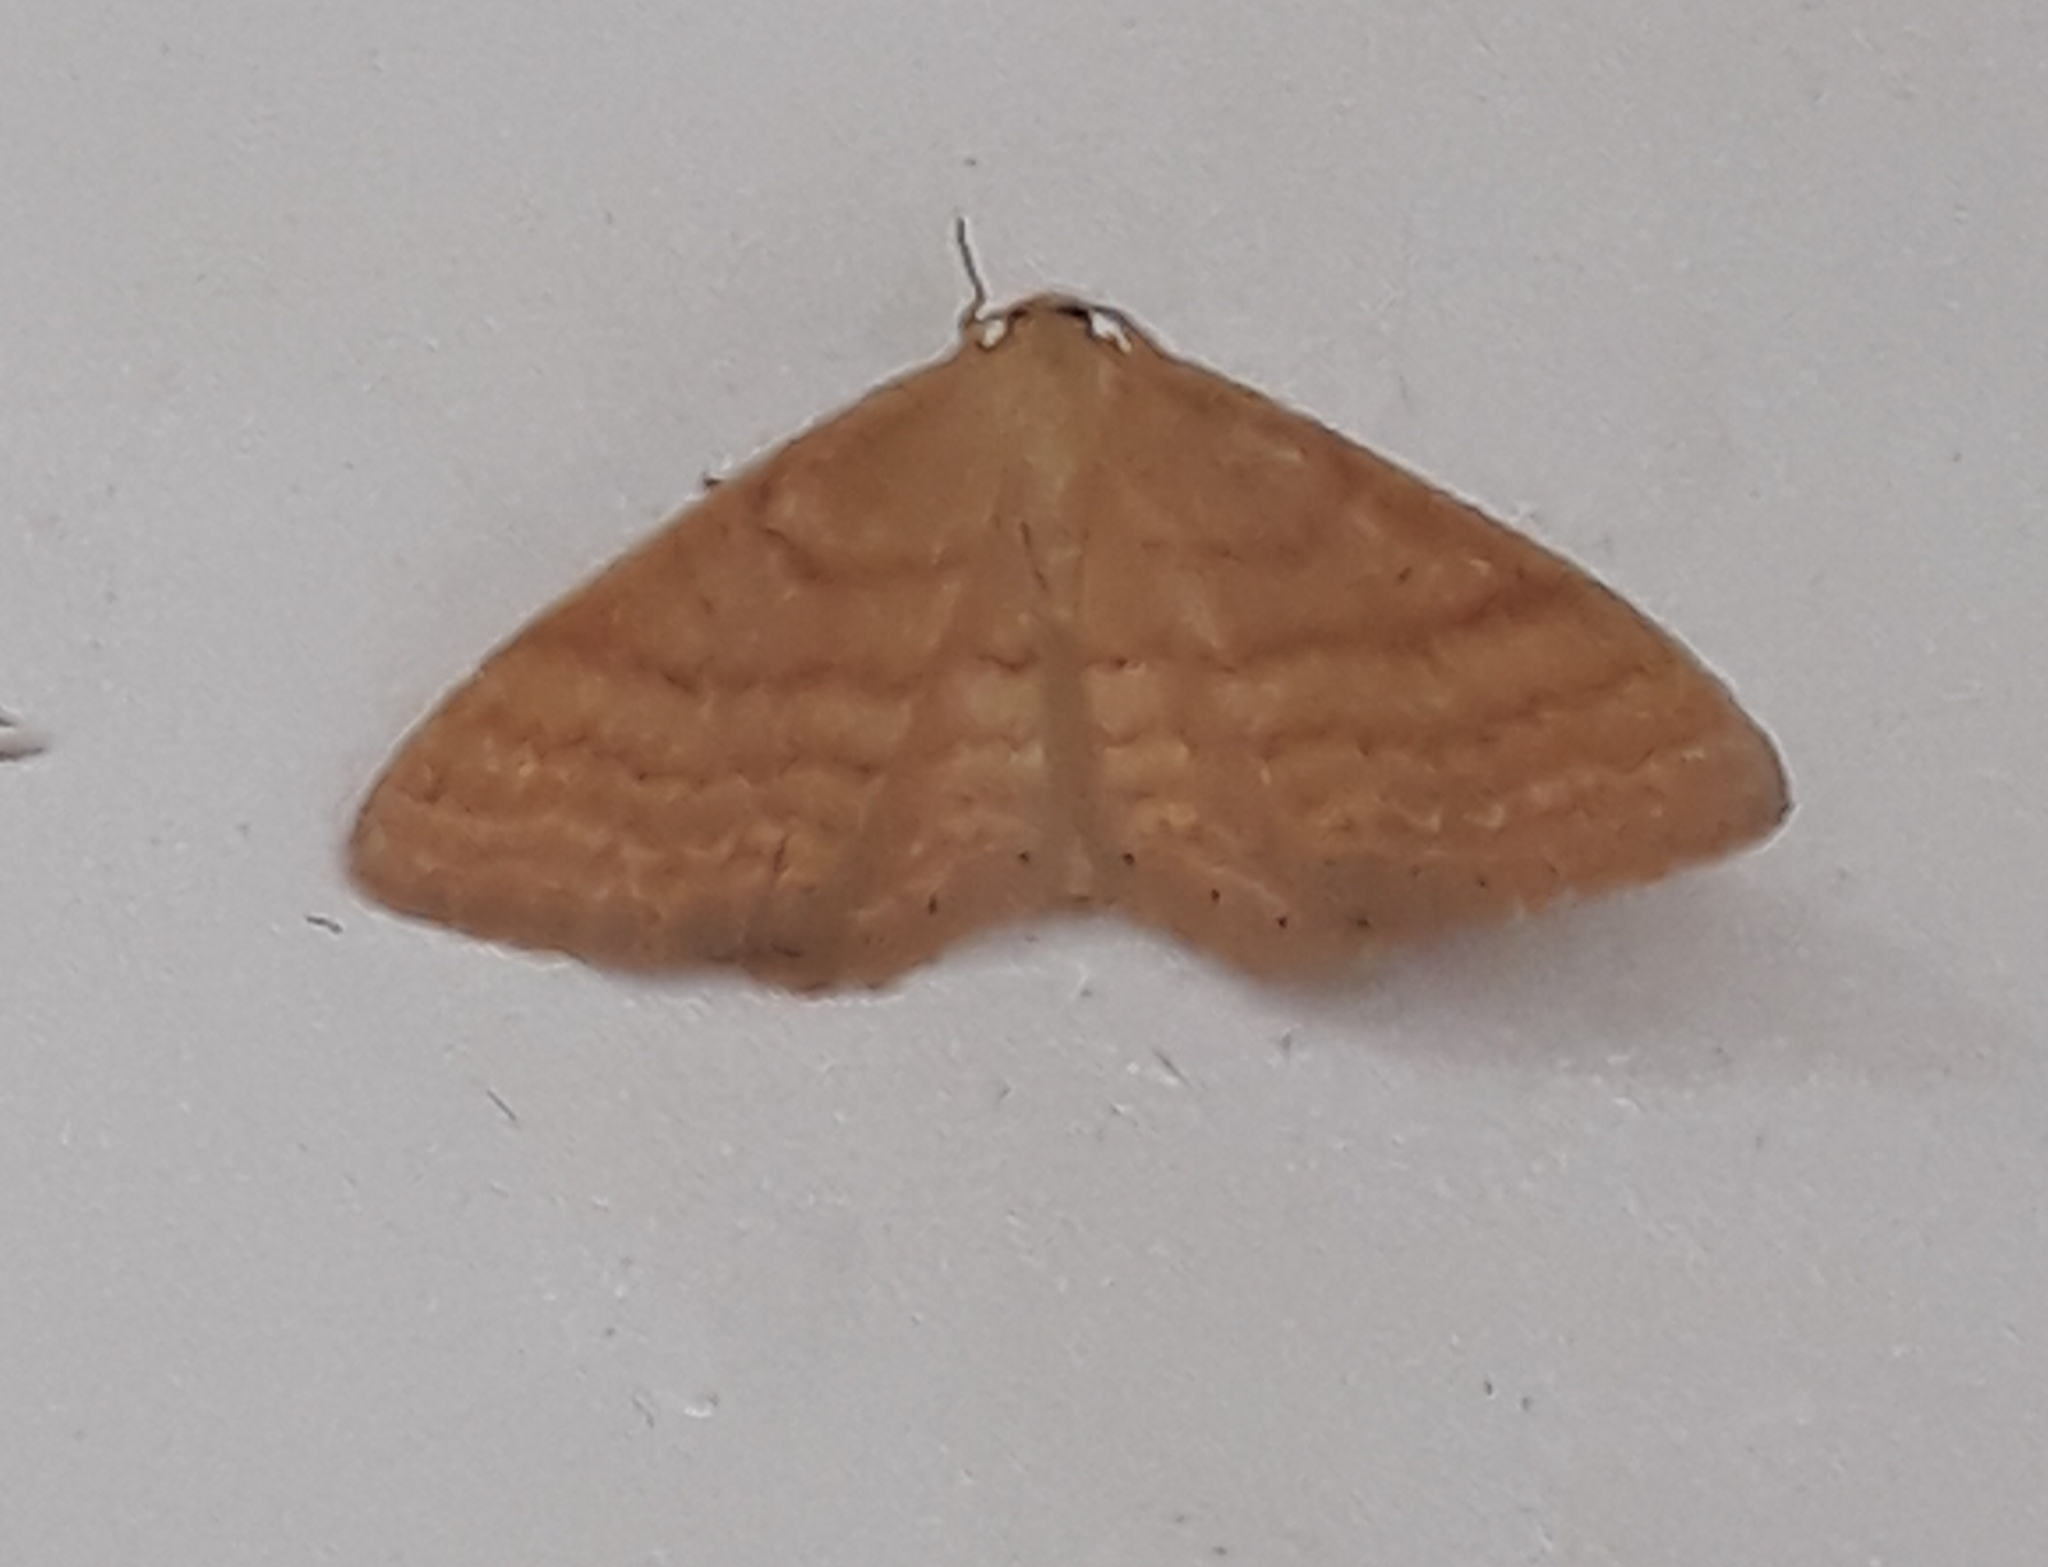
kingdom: Animalia
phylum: Arthropoda
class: Insecta
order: Lepidoptera
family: Geometridae
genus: Idaea
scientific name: Idaea ochrata
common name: Bright wave
